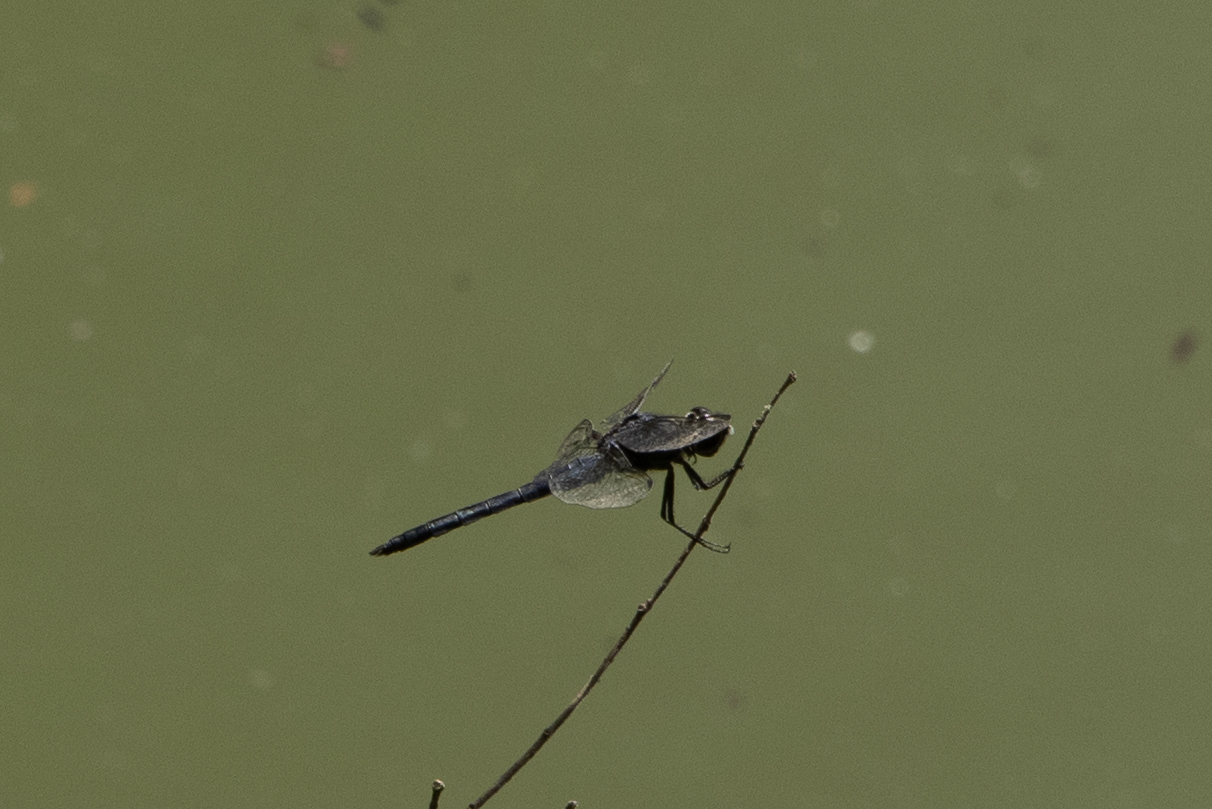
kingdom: Animalia
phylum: Arthropoda
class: Insecta
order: Odonata
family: Libellulidae
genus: Libellula
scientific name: Libellula incesta
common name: Slaty skimmer
